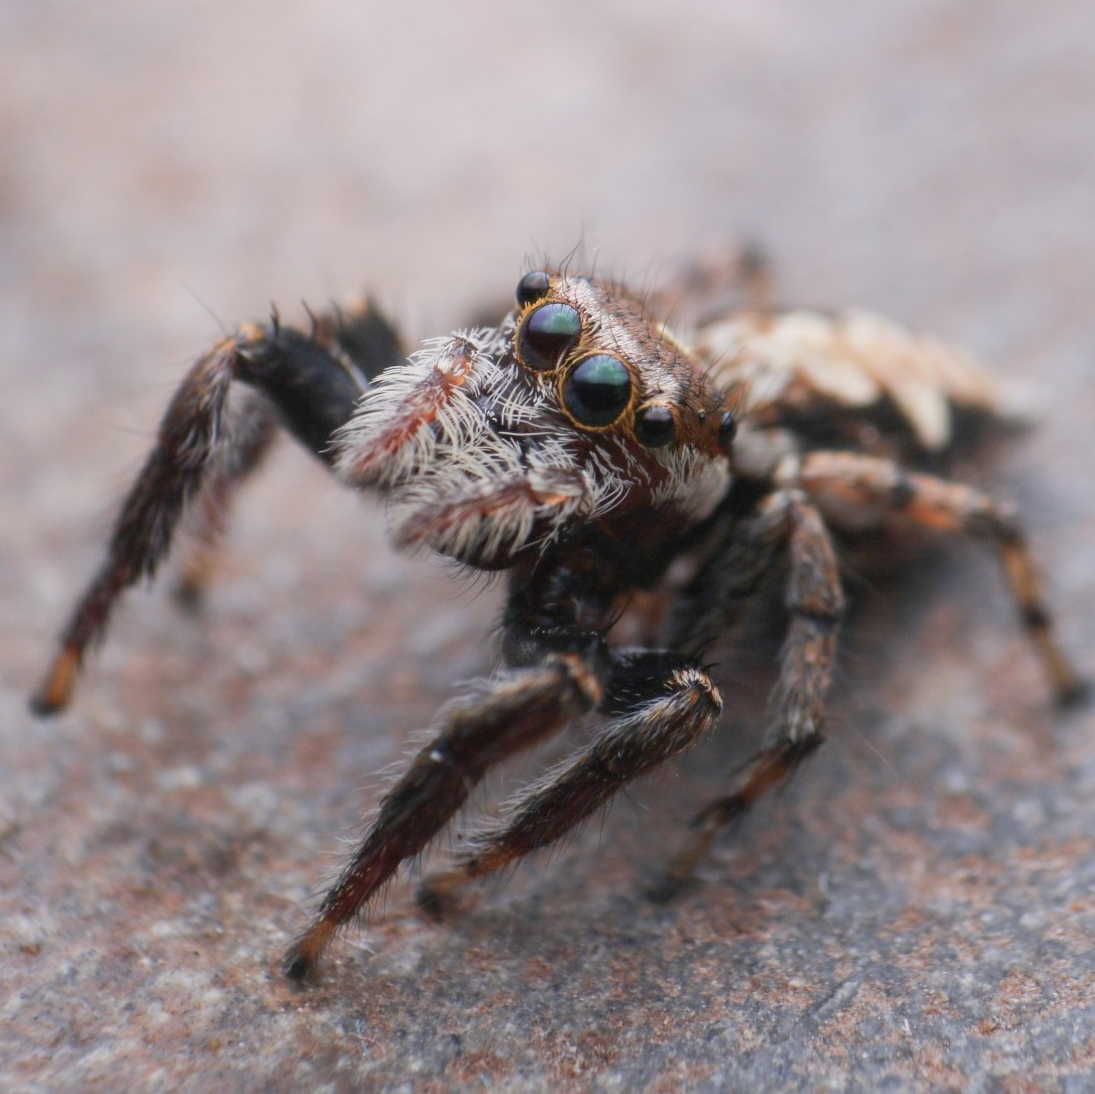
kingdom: Animalia
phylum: Arthropoda
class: Arachnida
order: Araneae
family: Salticidae
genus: Hyllus
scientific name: Hyllus manu
